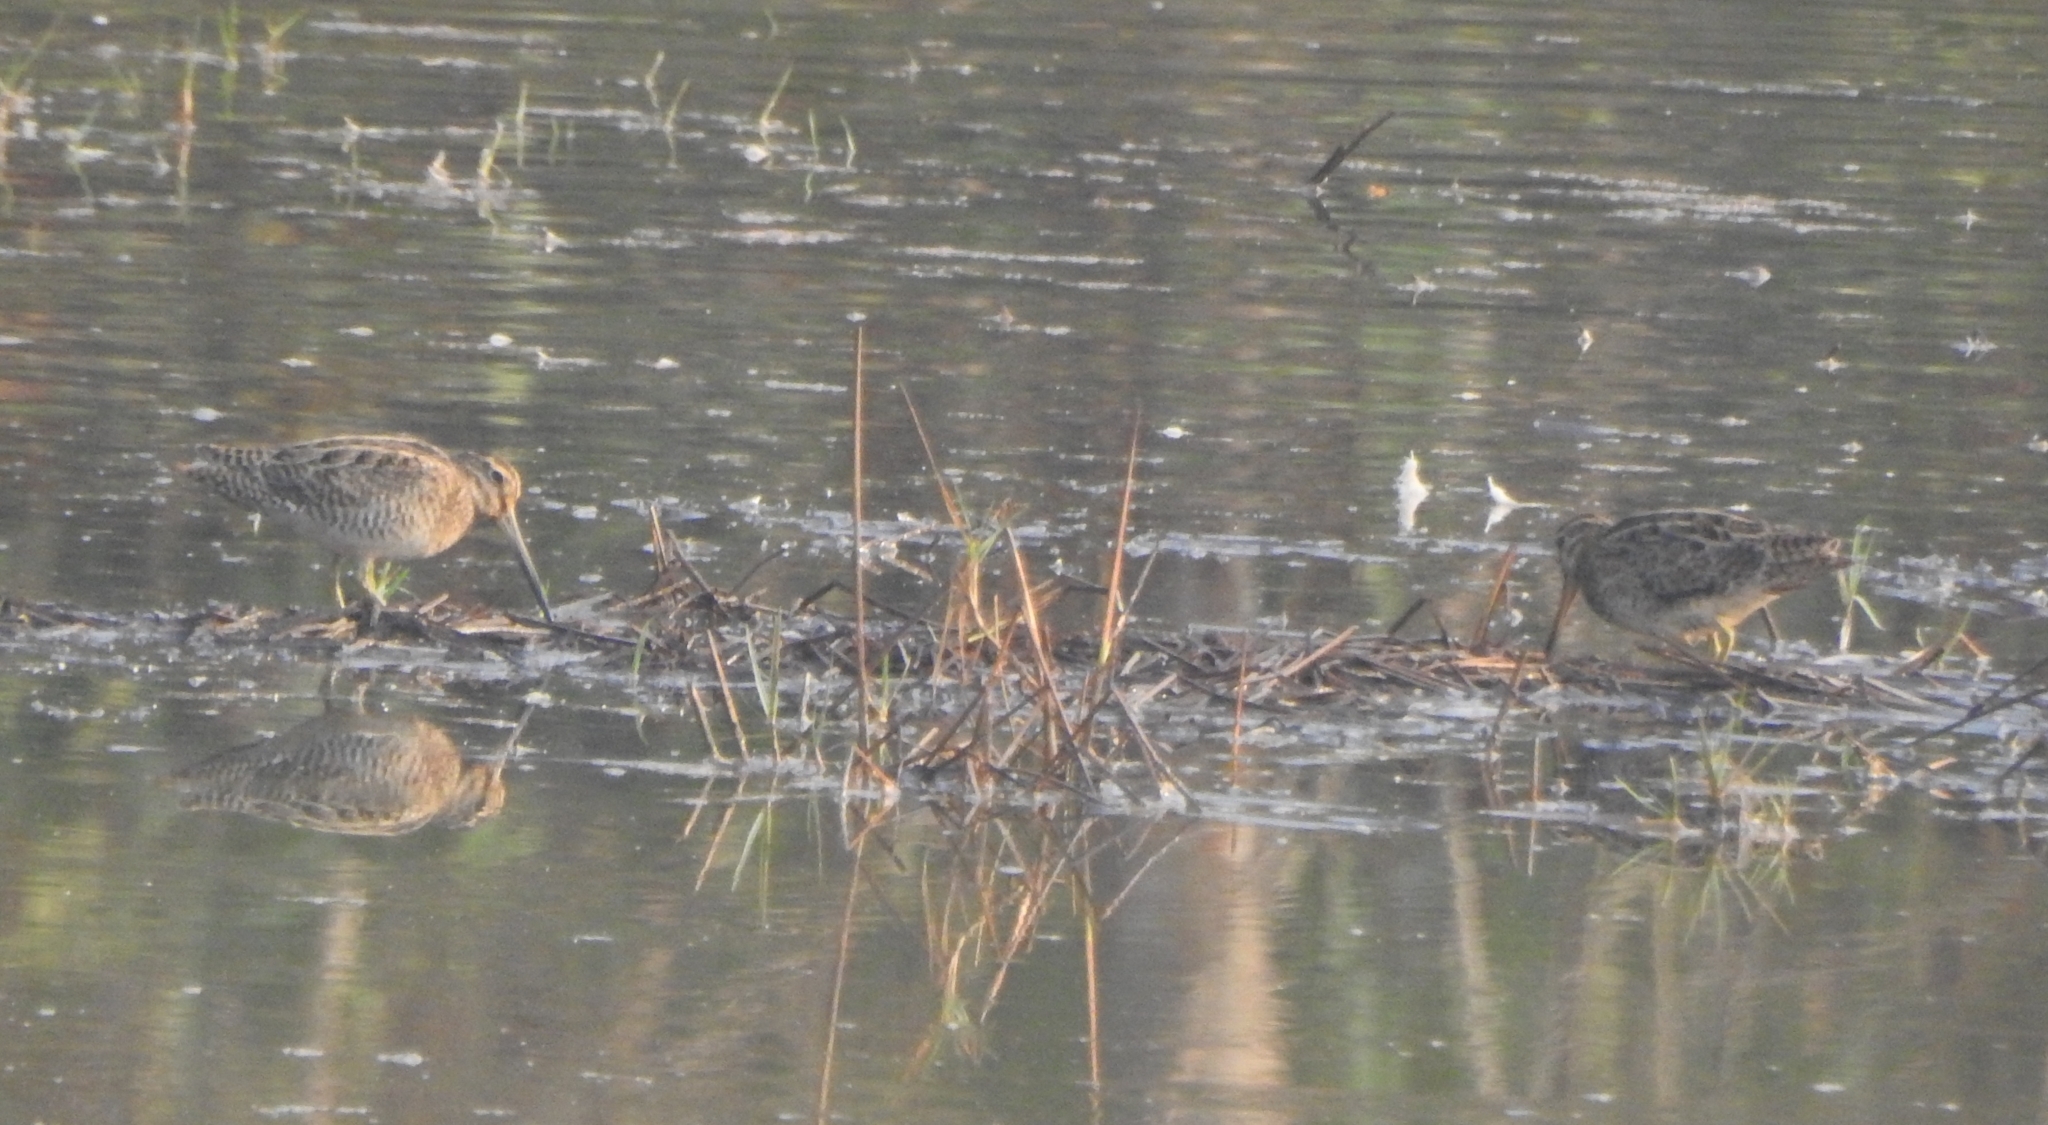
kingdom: Animalia
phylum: Chordata
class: Aves
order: Charadriiformes
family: Scolopacidae
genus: Gallinago
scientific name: Gallinago stenura
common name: Pin-tailed snipe
